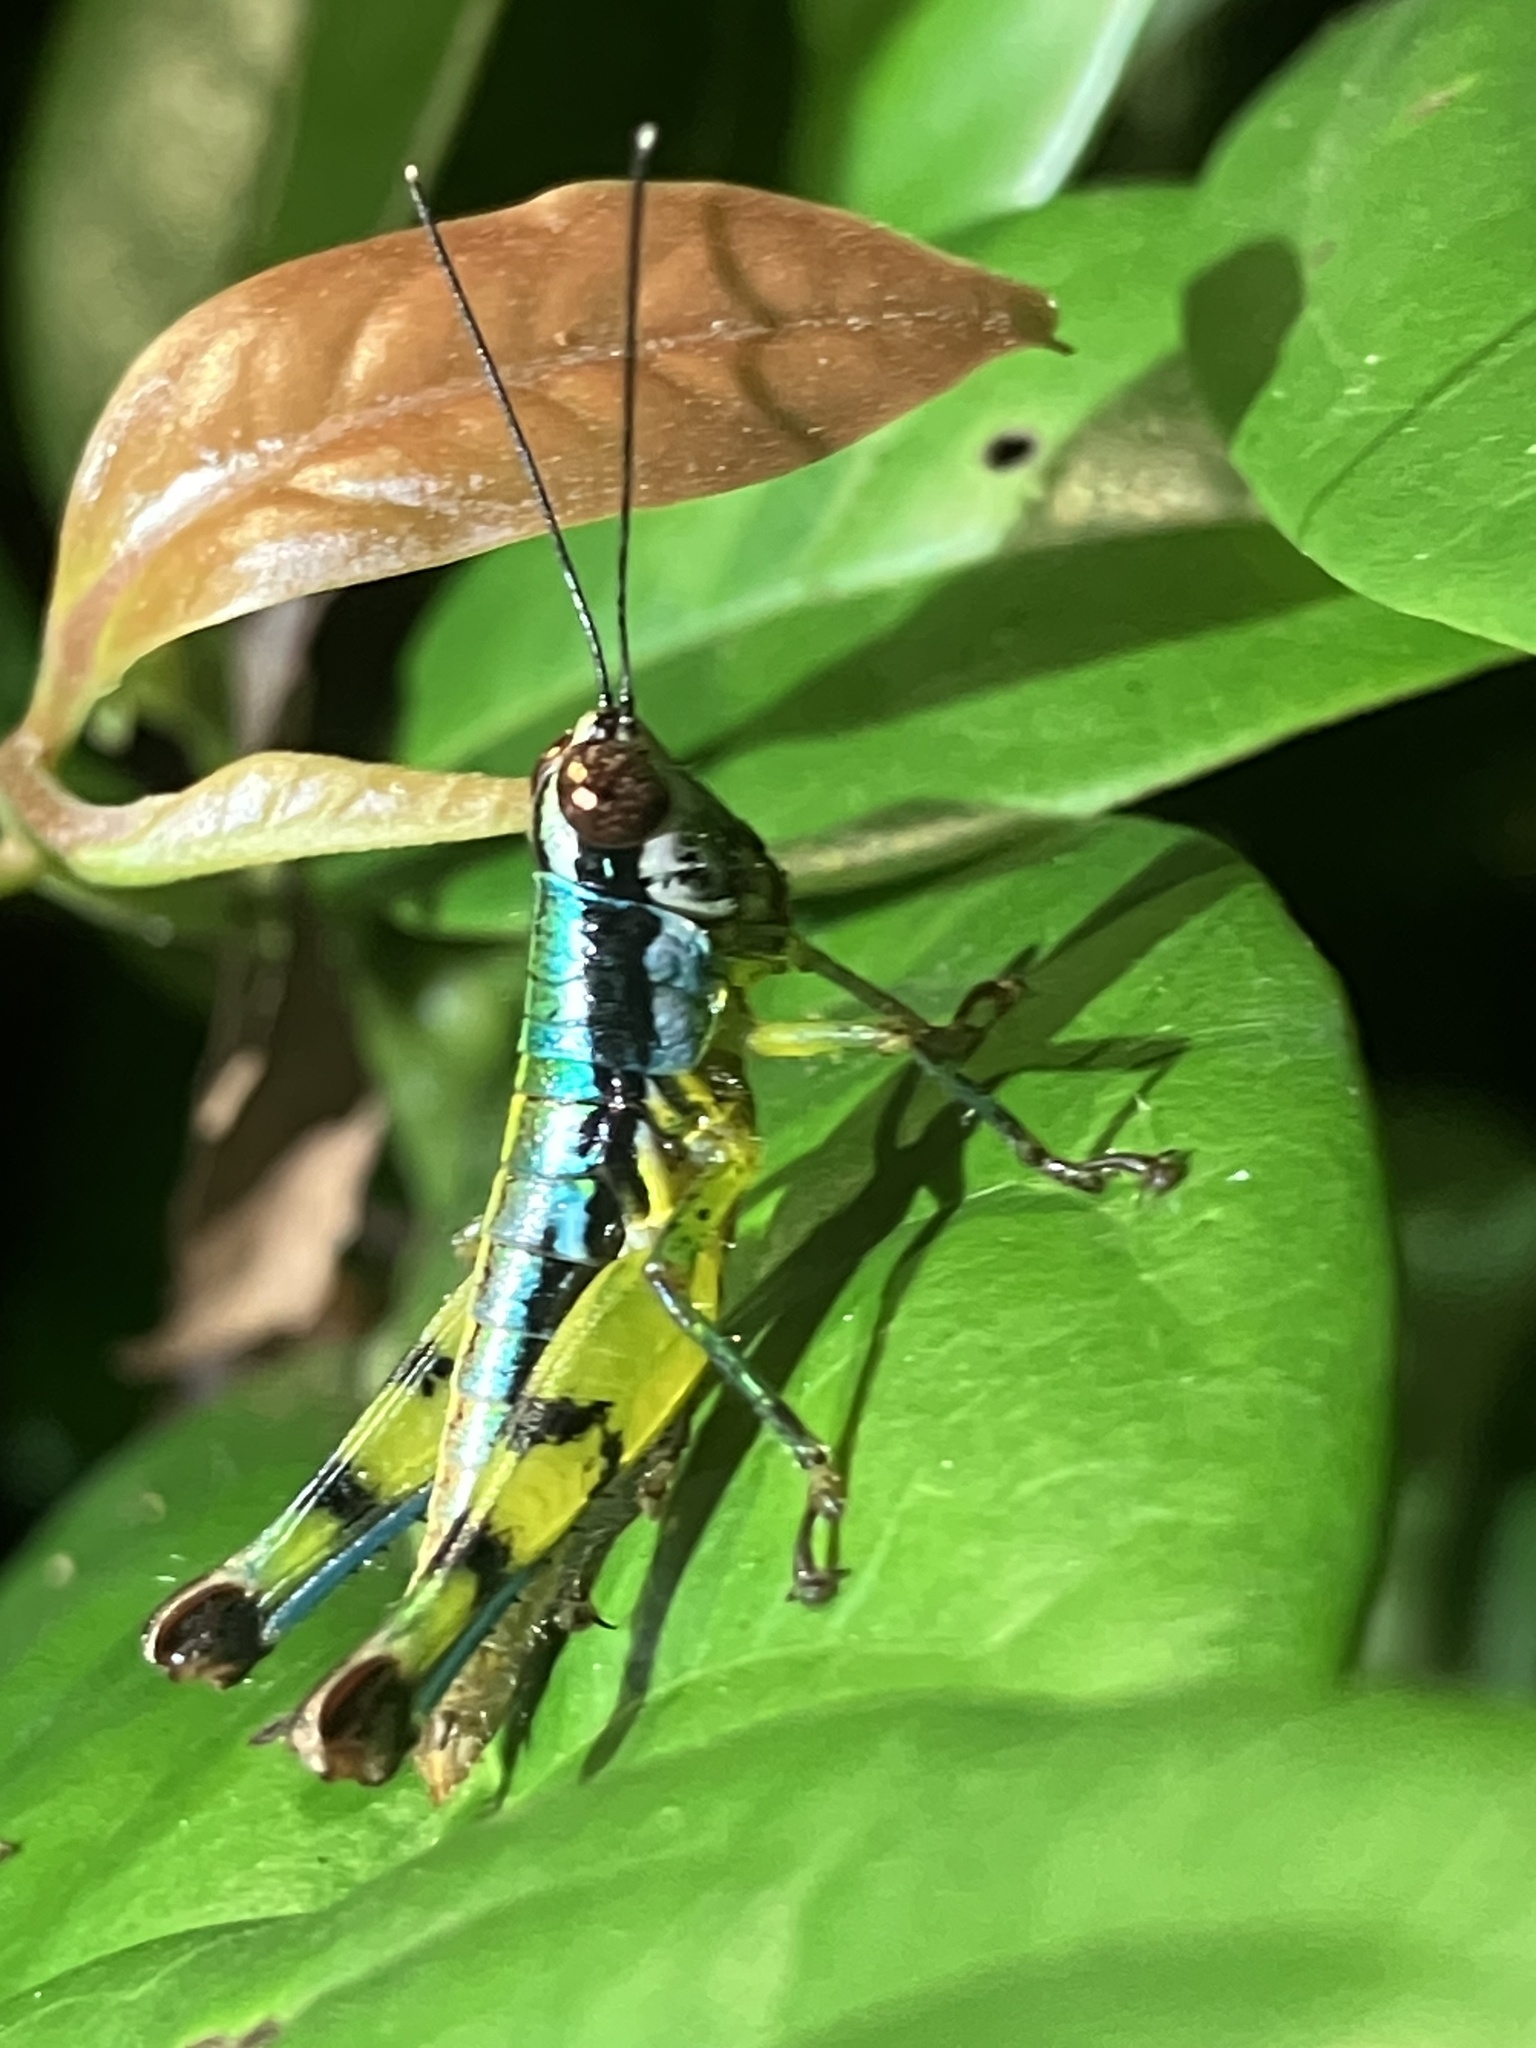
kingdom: Animalia
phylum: Arthropoda
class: Insecta
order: Orthoptera
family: Acrididae
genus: Genimen
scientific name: Genimen prasinum
